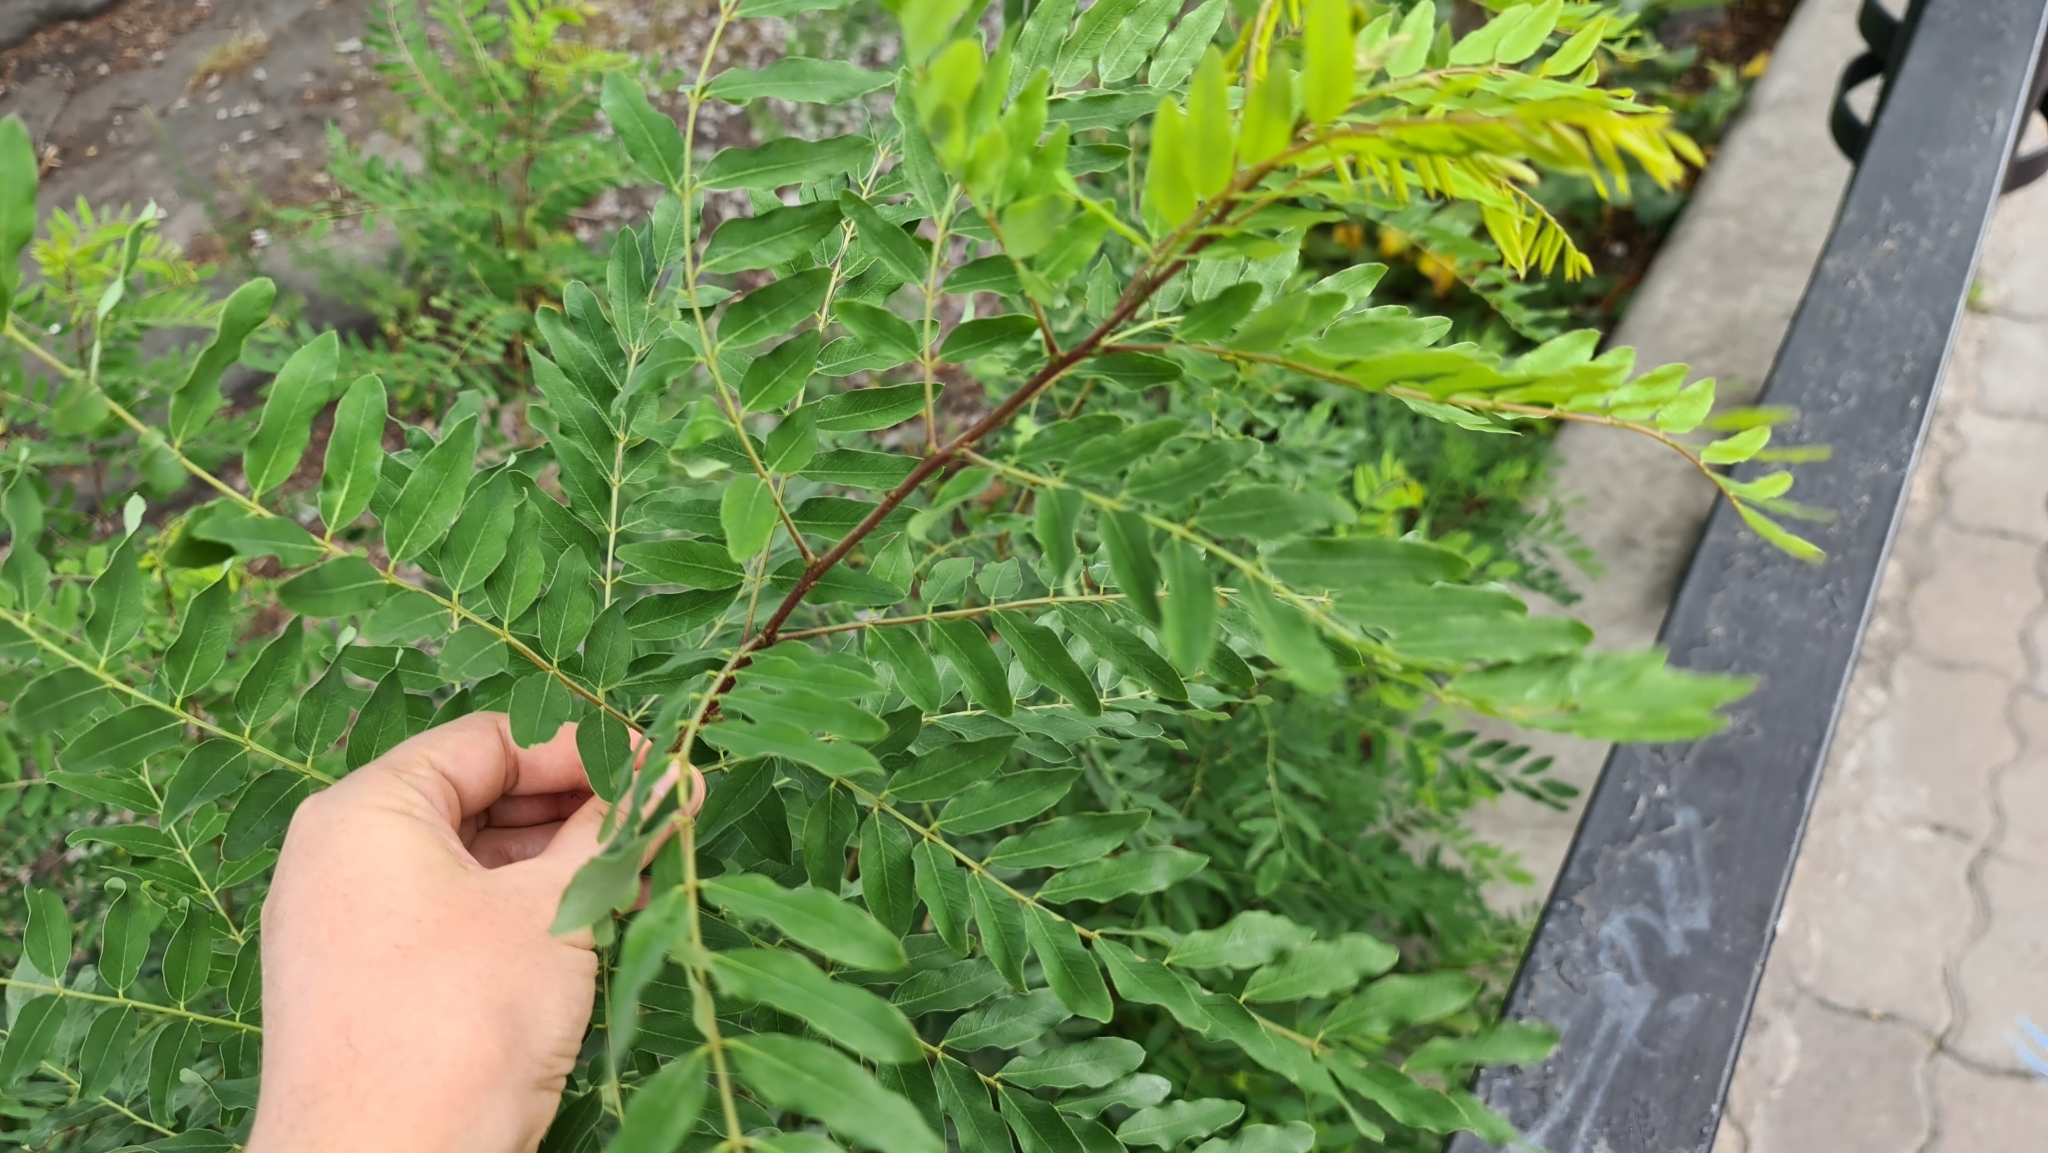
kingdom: Plantae
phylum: Tracheophyta
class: Magnoliopsida
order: Fabales
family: Fabaceae
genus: Amorpha
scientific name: Amorpha fruticosa
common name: False indigo
